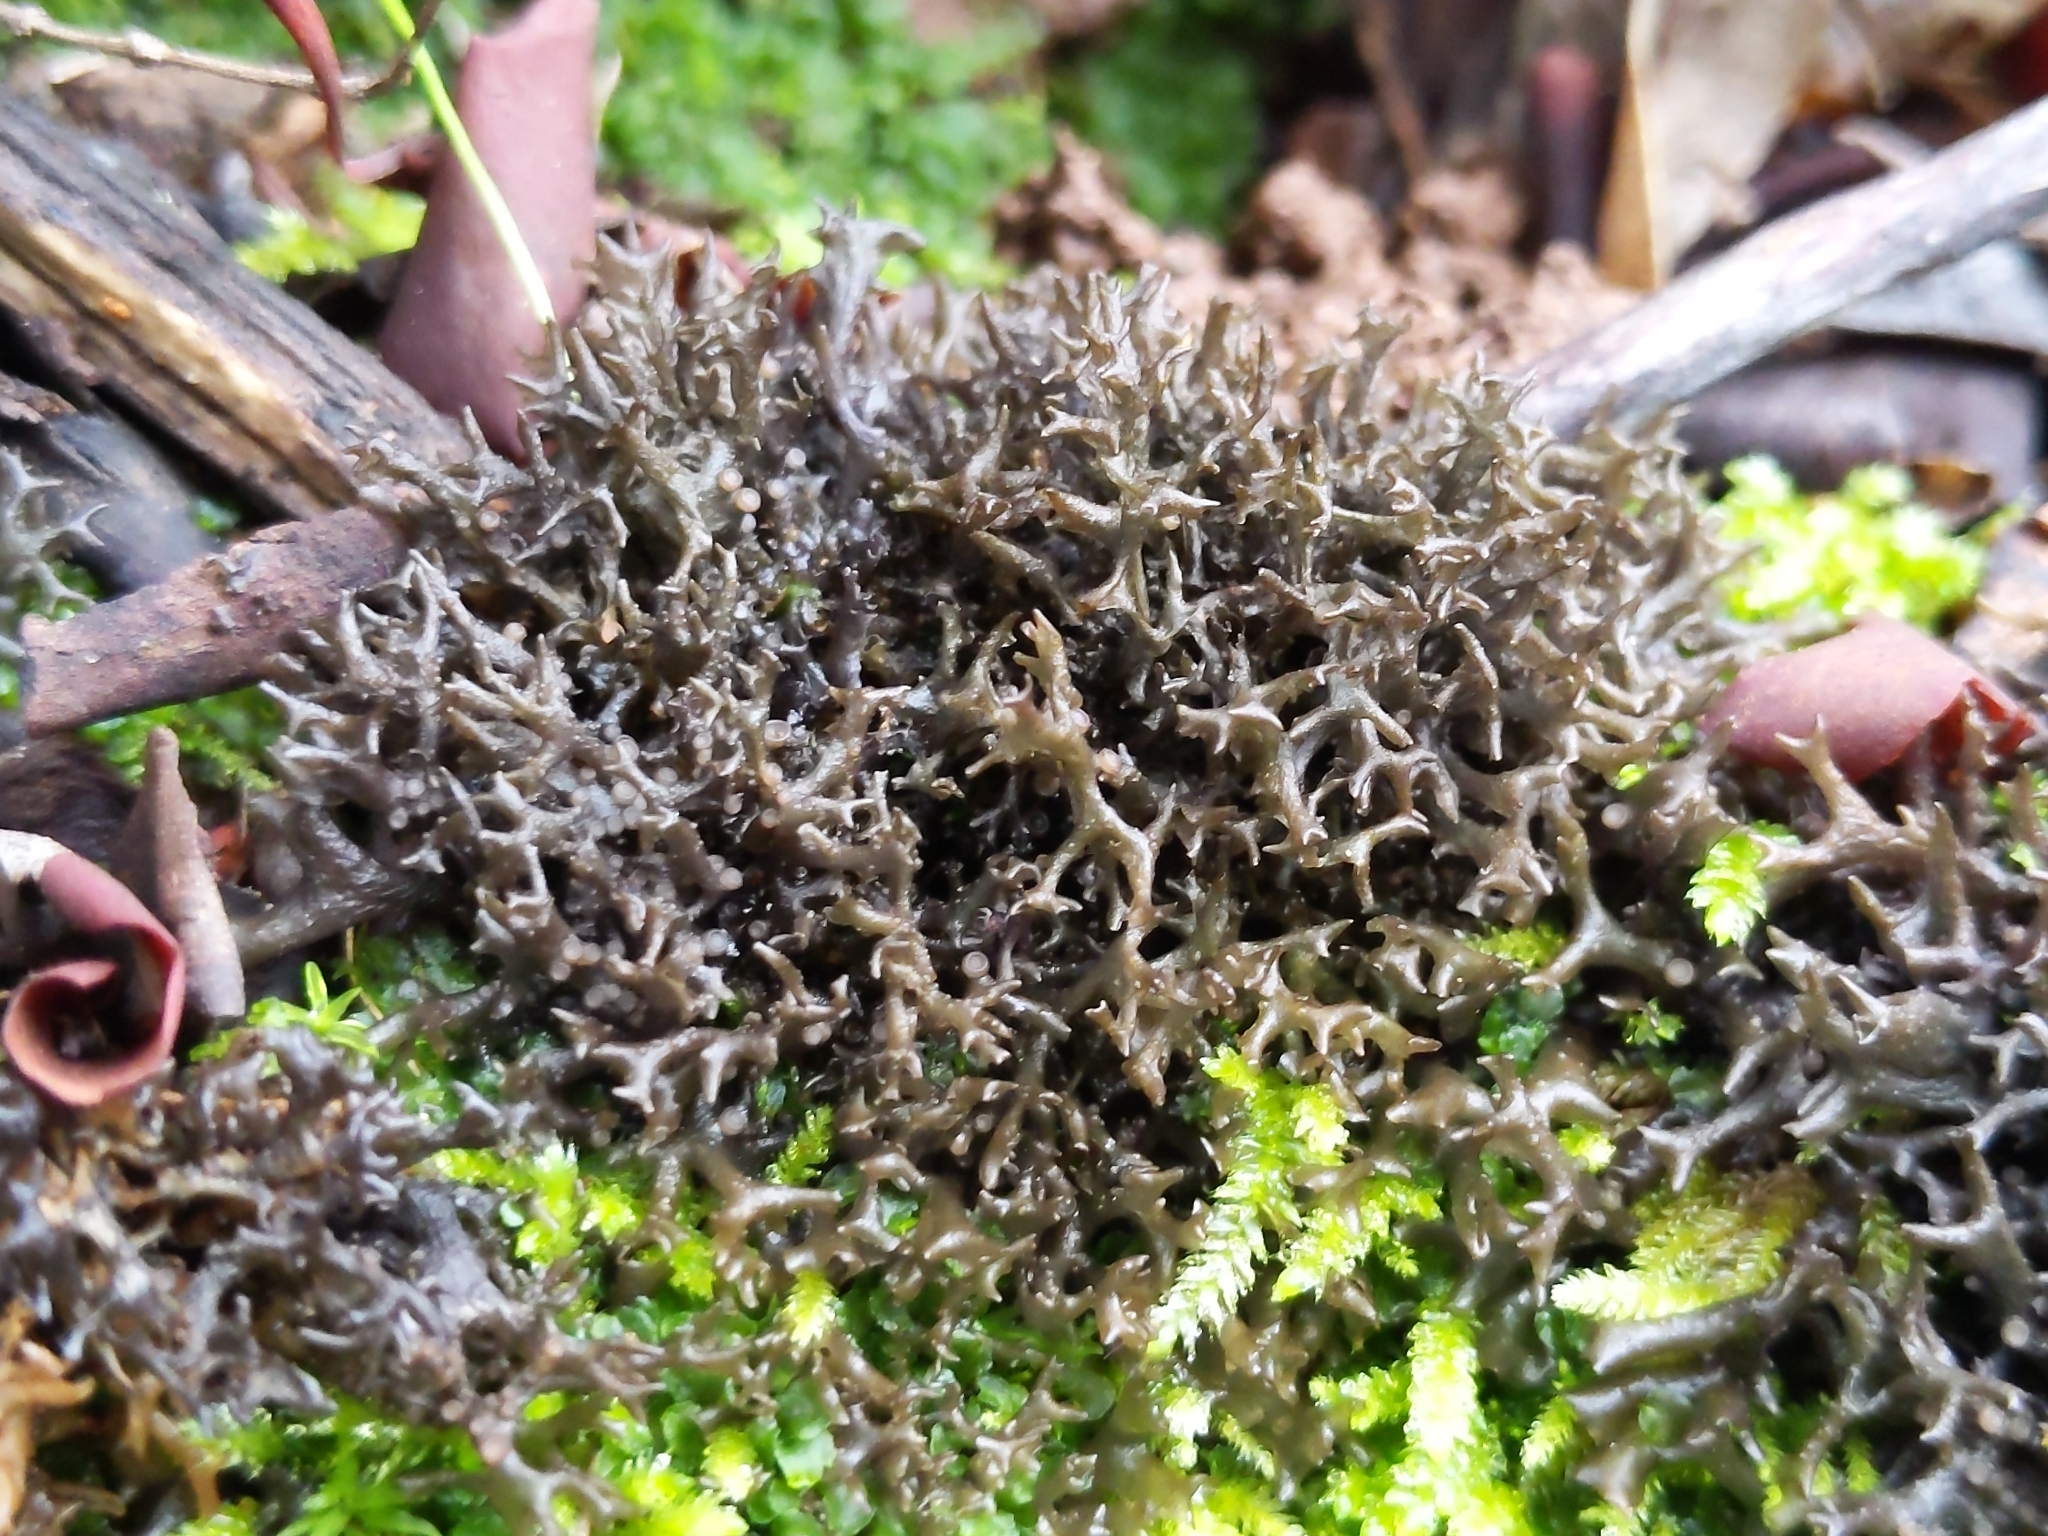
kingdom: Fungi
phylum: Ascomycota
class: Lecanoromycetes
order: Peltigerales
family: Collemataceae
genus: Scytinium
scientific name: Scytinium palmatum
